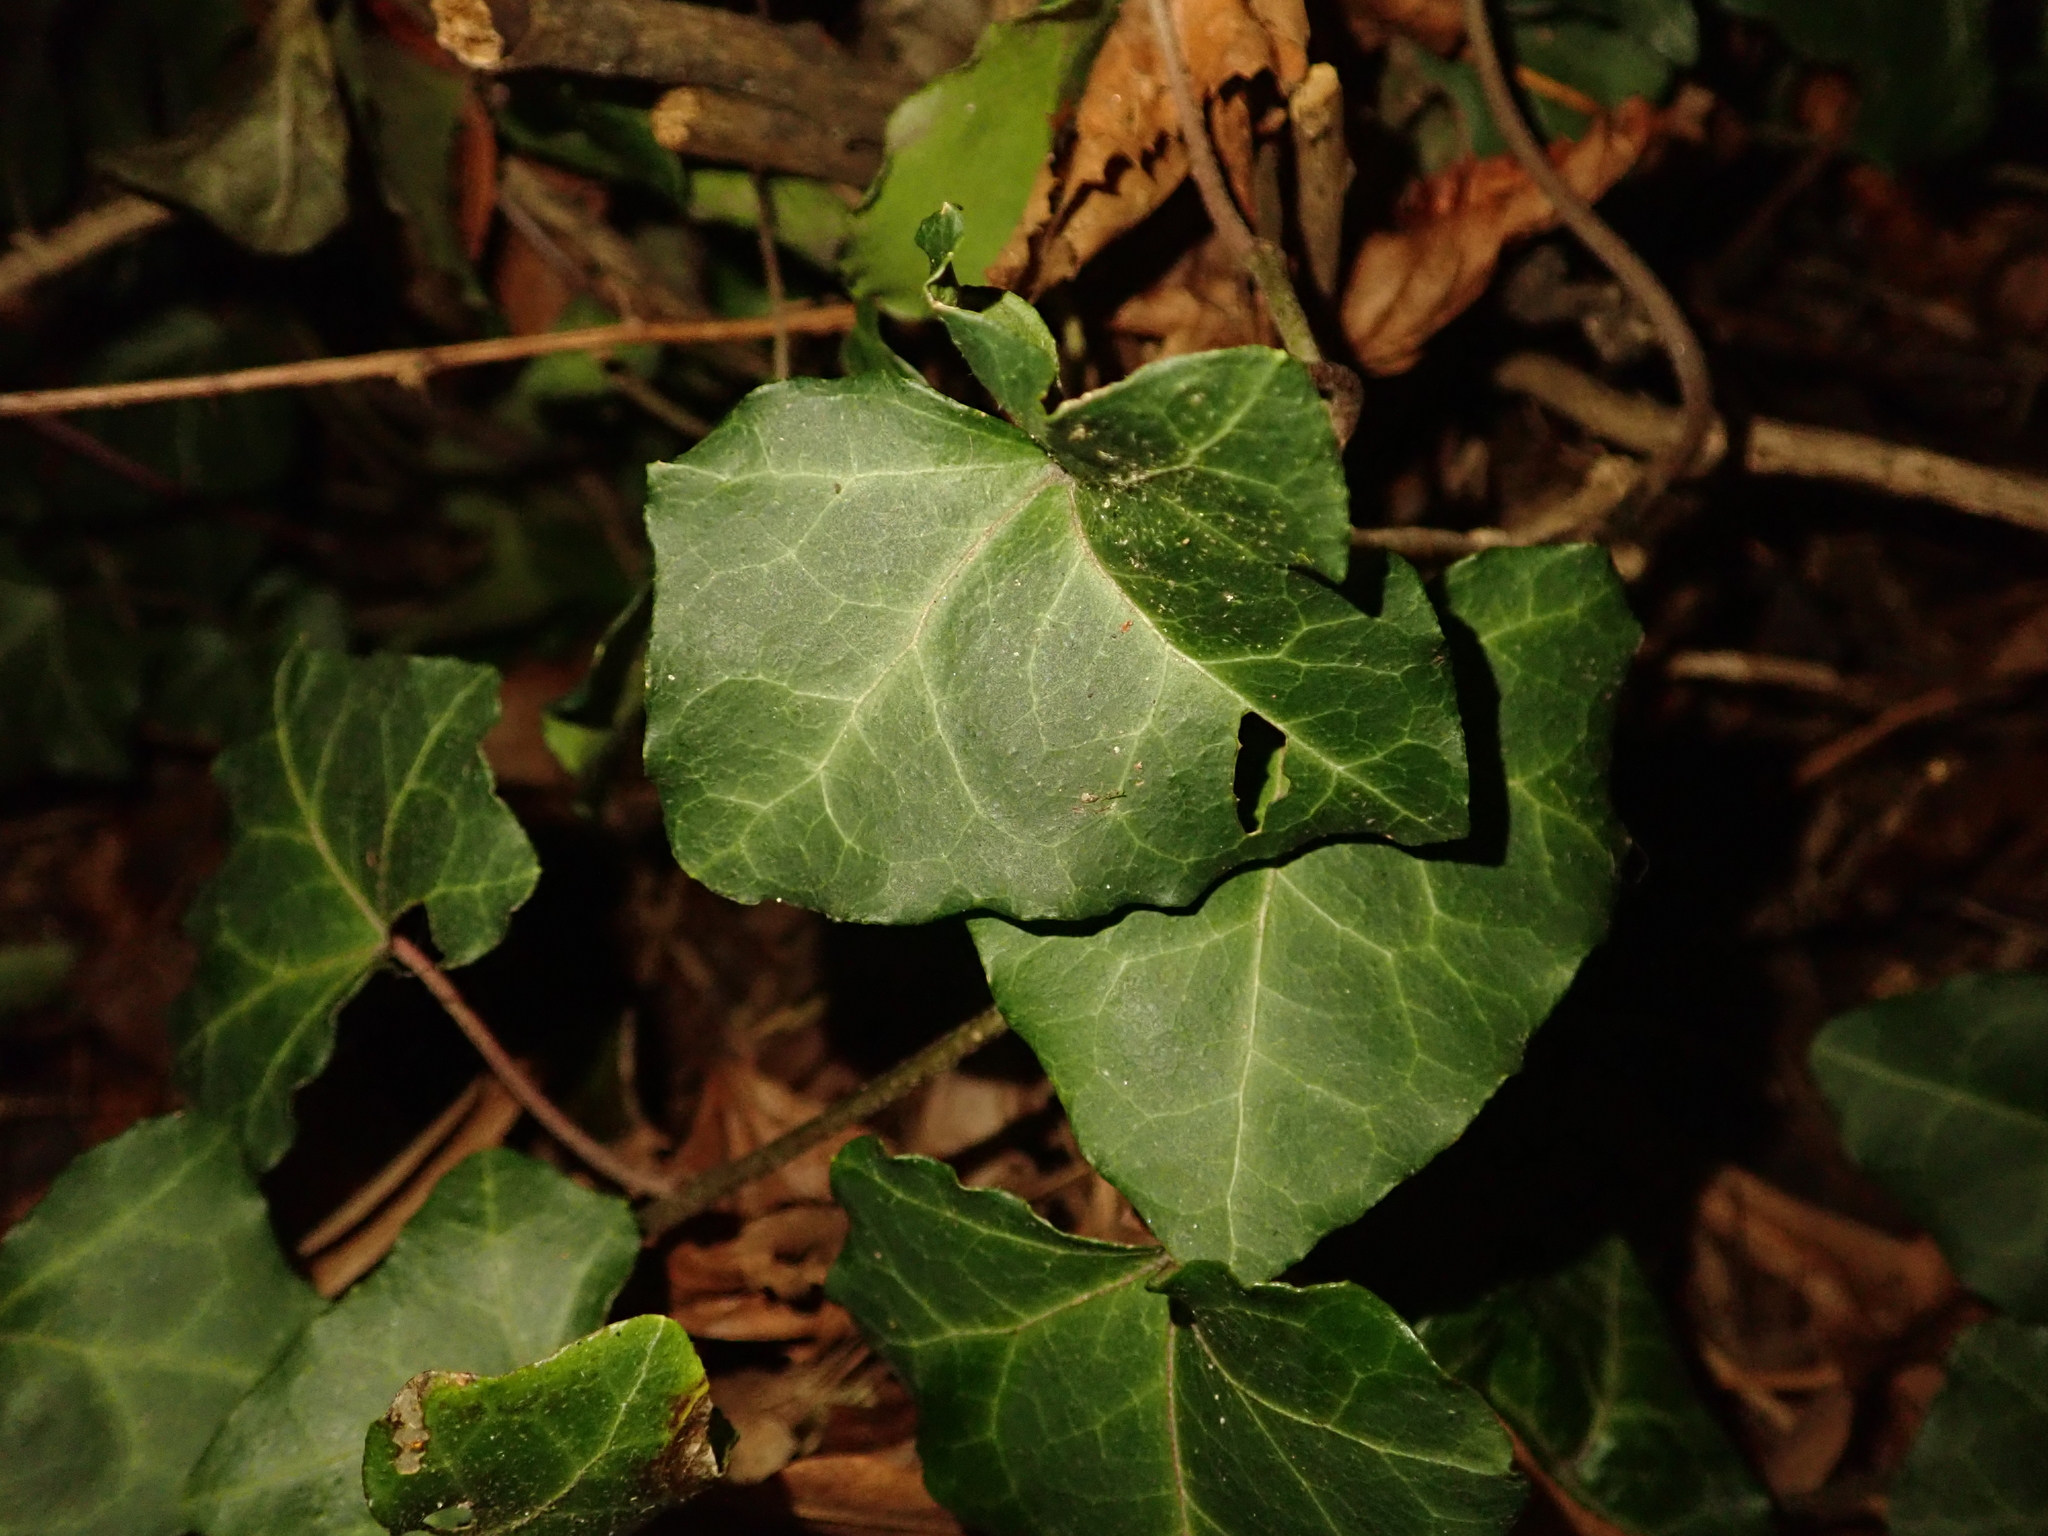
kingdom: Plantae
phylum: Tracheophyta
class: Magnoliopsida
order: Apiales
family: Araliaceae
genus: Hedera
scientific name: Hedera helix
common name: Ivy
